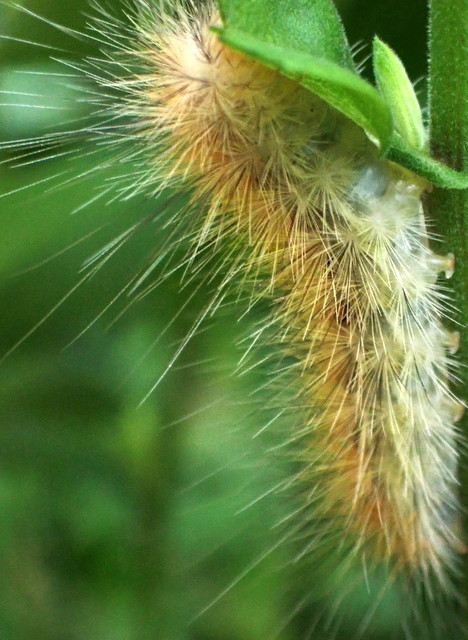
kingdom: Animalia
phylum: Arthropoda
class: Insecta
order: Lepidoptera
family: Erebidae
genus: Spilosoma
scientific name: Spilosoma virginica
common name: Virginia tiger moth
